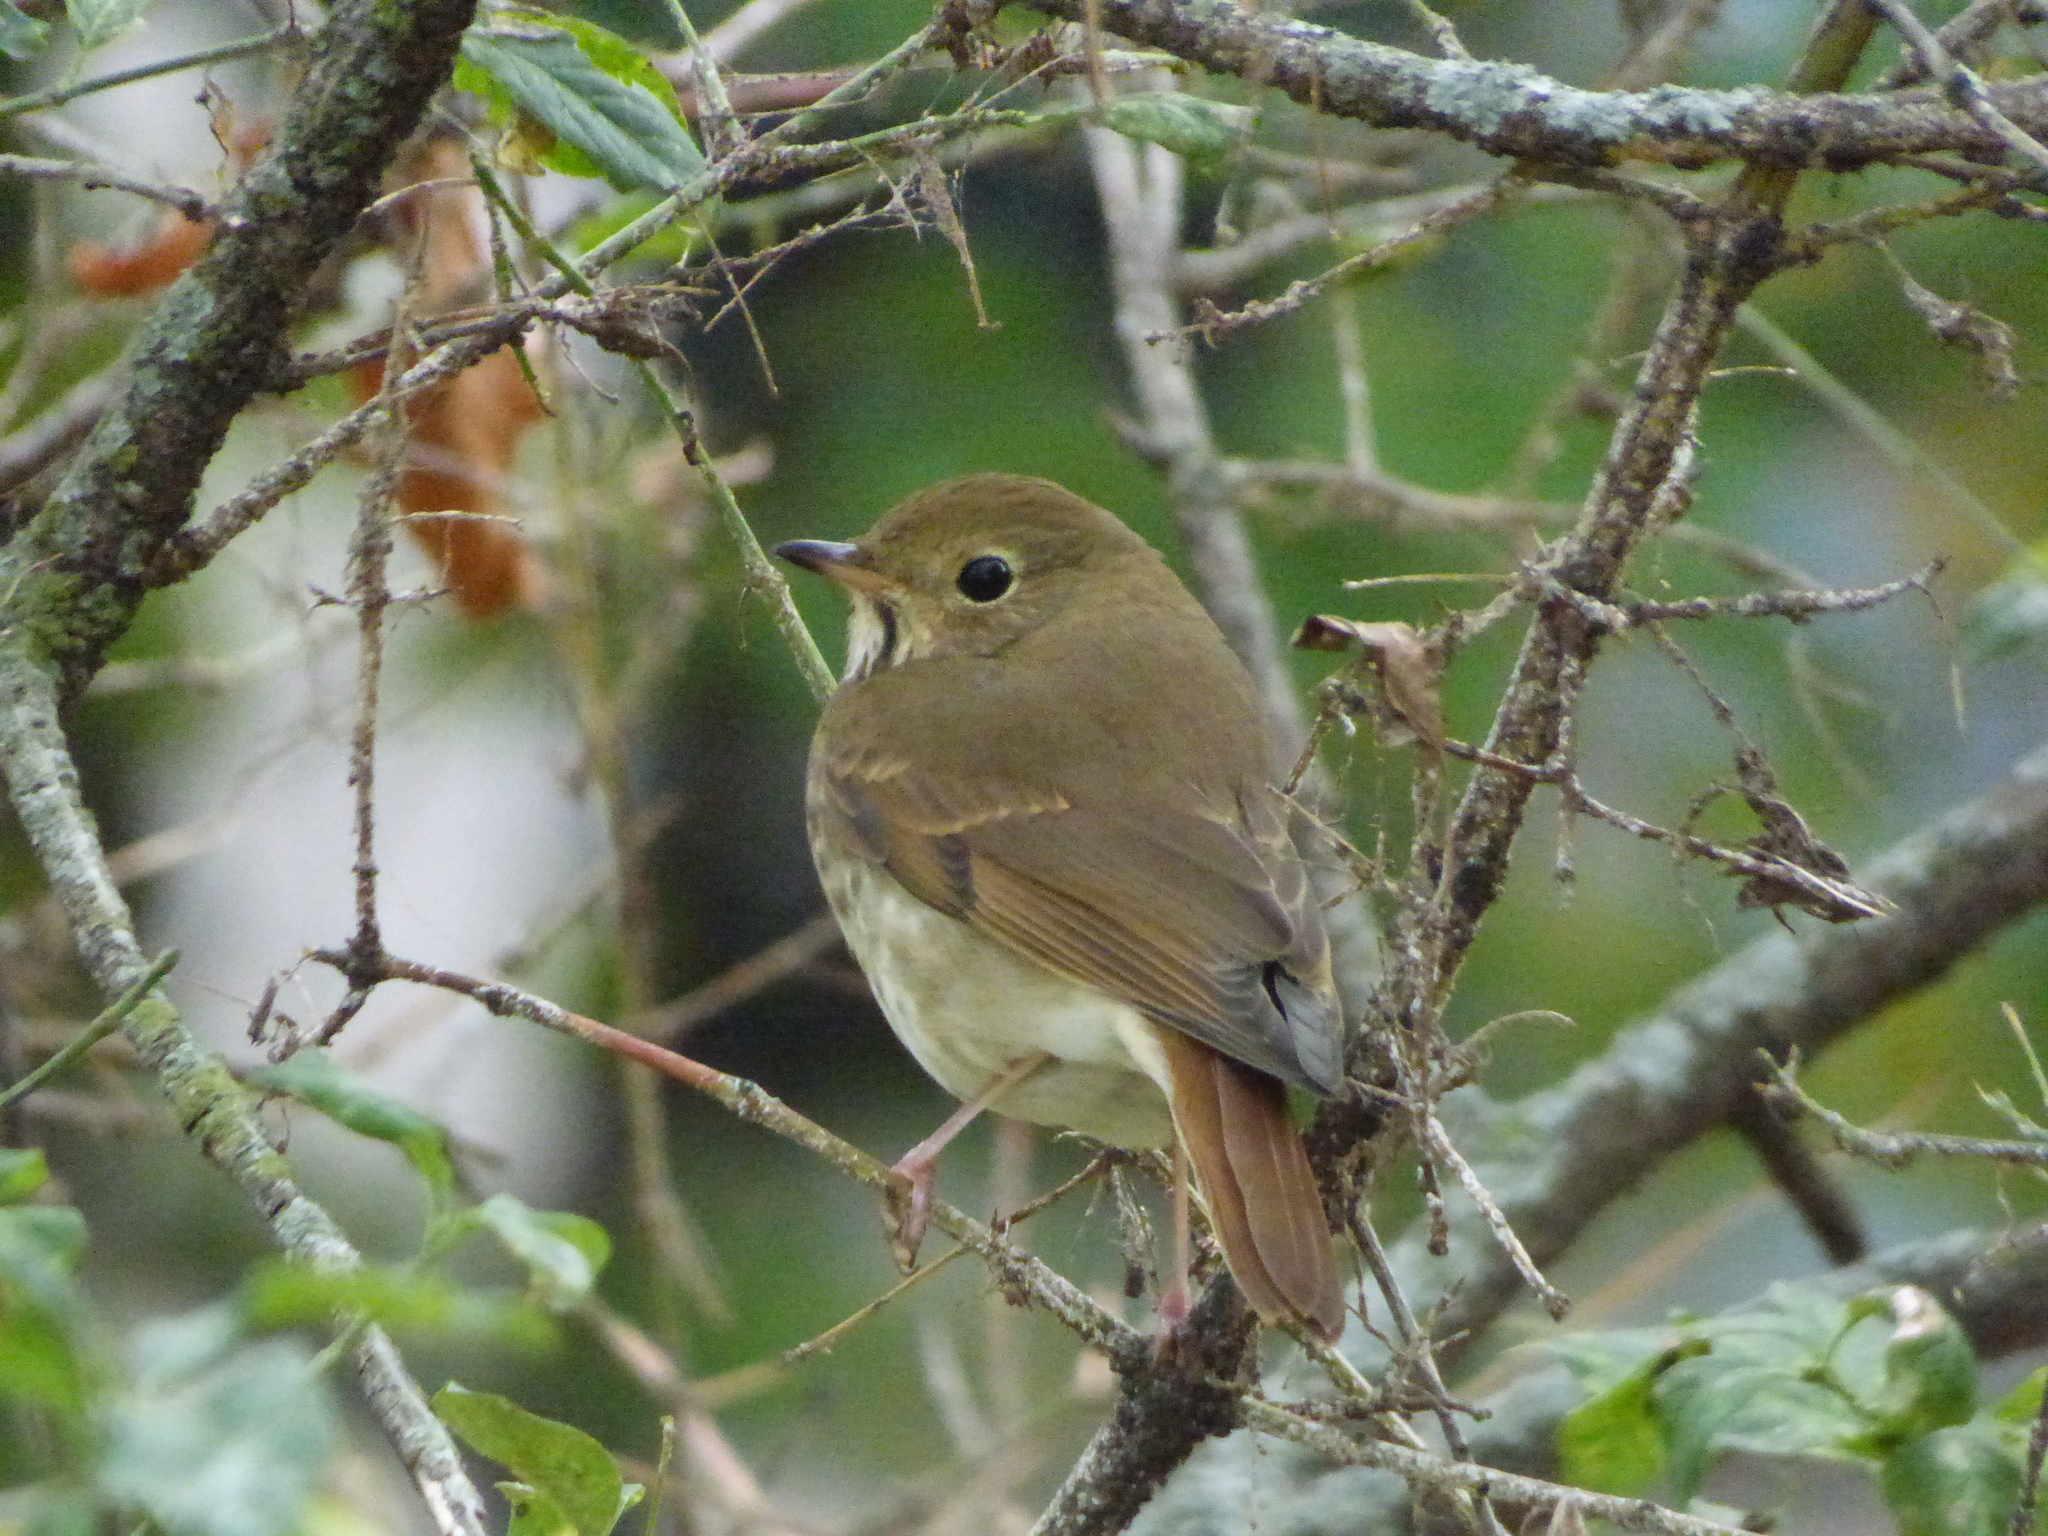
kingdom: Animalia
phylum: Chordata
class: Aves
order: Passeriformes
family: Turdidae
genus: Catharus
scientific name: Catharus guttatus
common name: Hermit thrush
